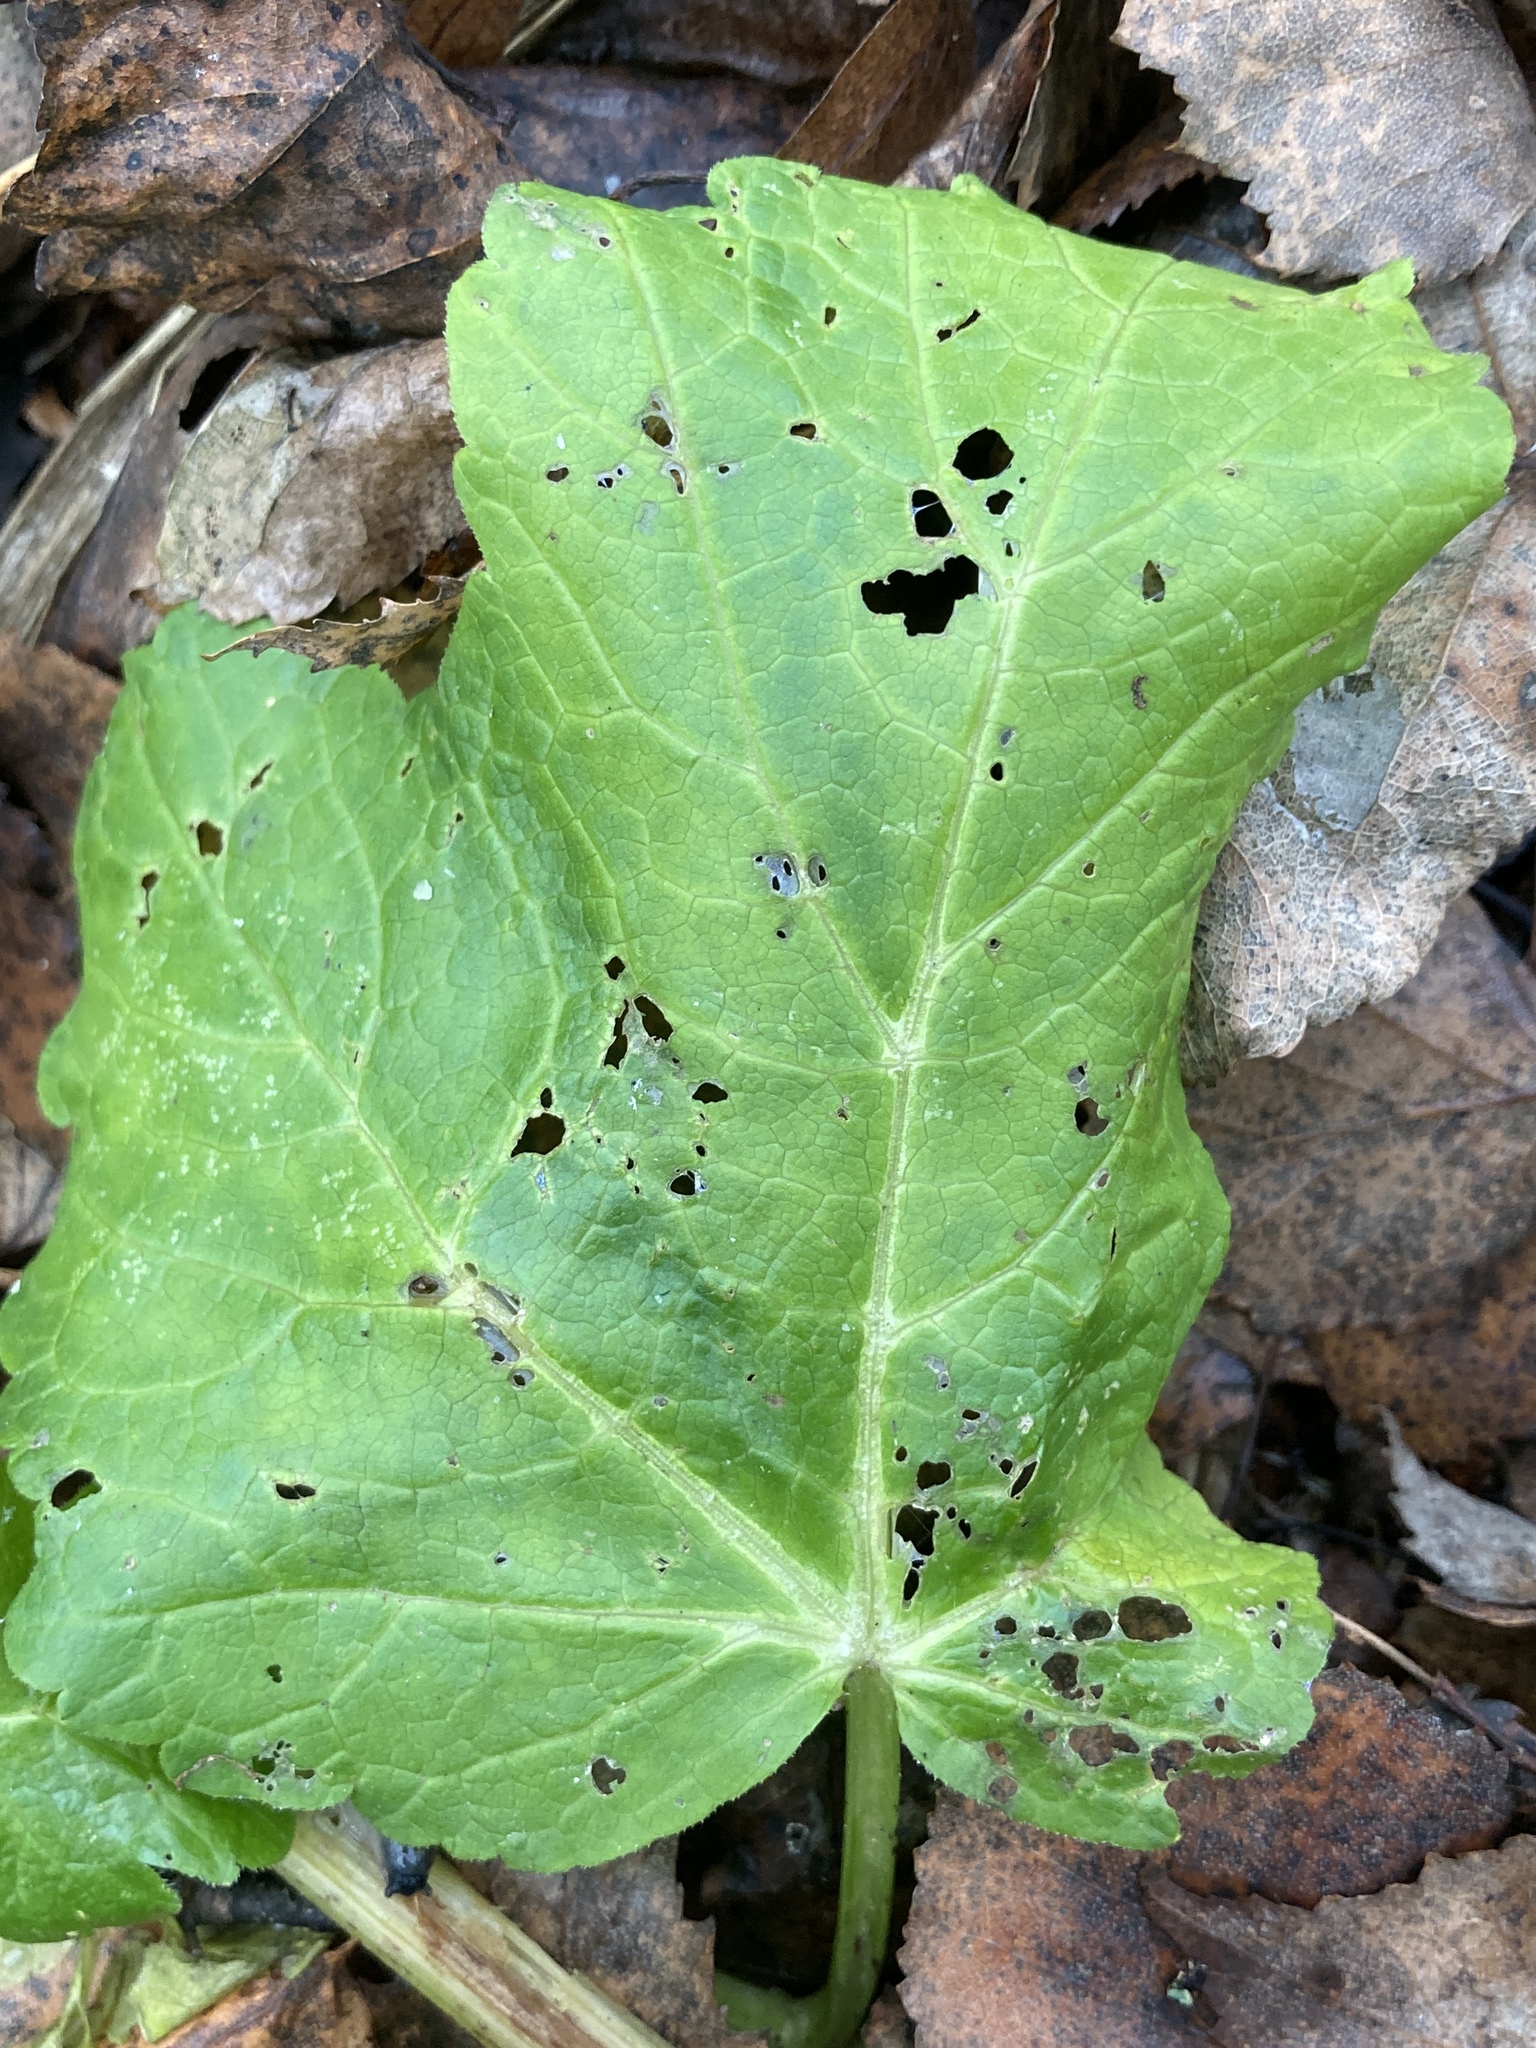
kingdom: Plantae
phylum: Tracheophyta
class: Magnoliopsida
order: Apiales
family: Apiaceae
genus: Heracleum
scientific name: Heracleum sosnowskyi
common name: Sosnowsky's hogweed
